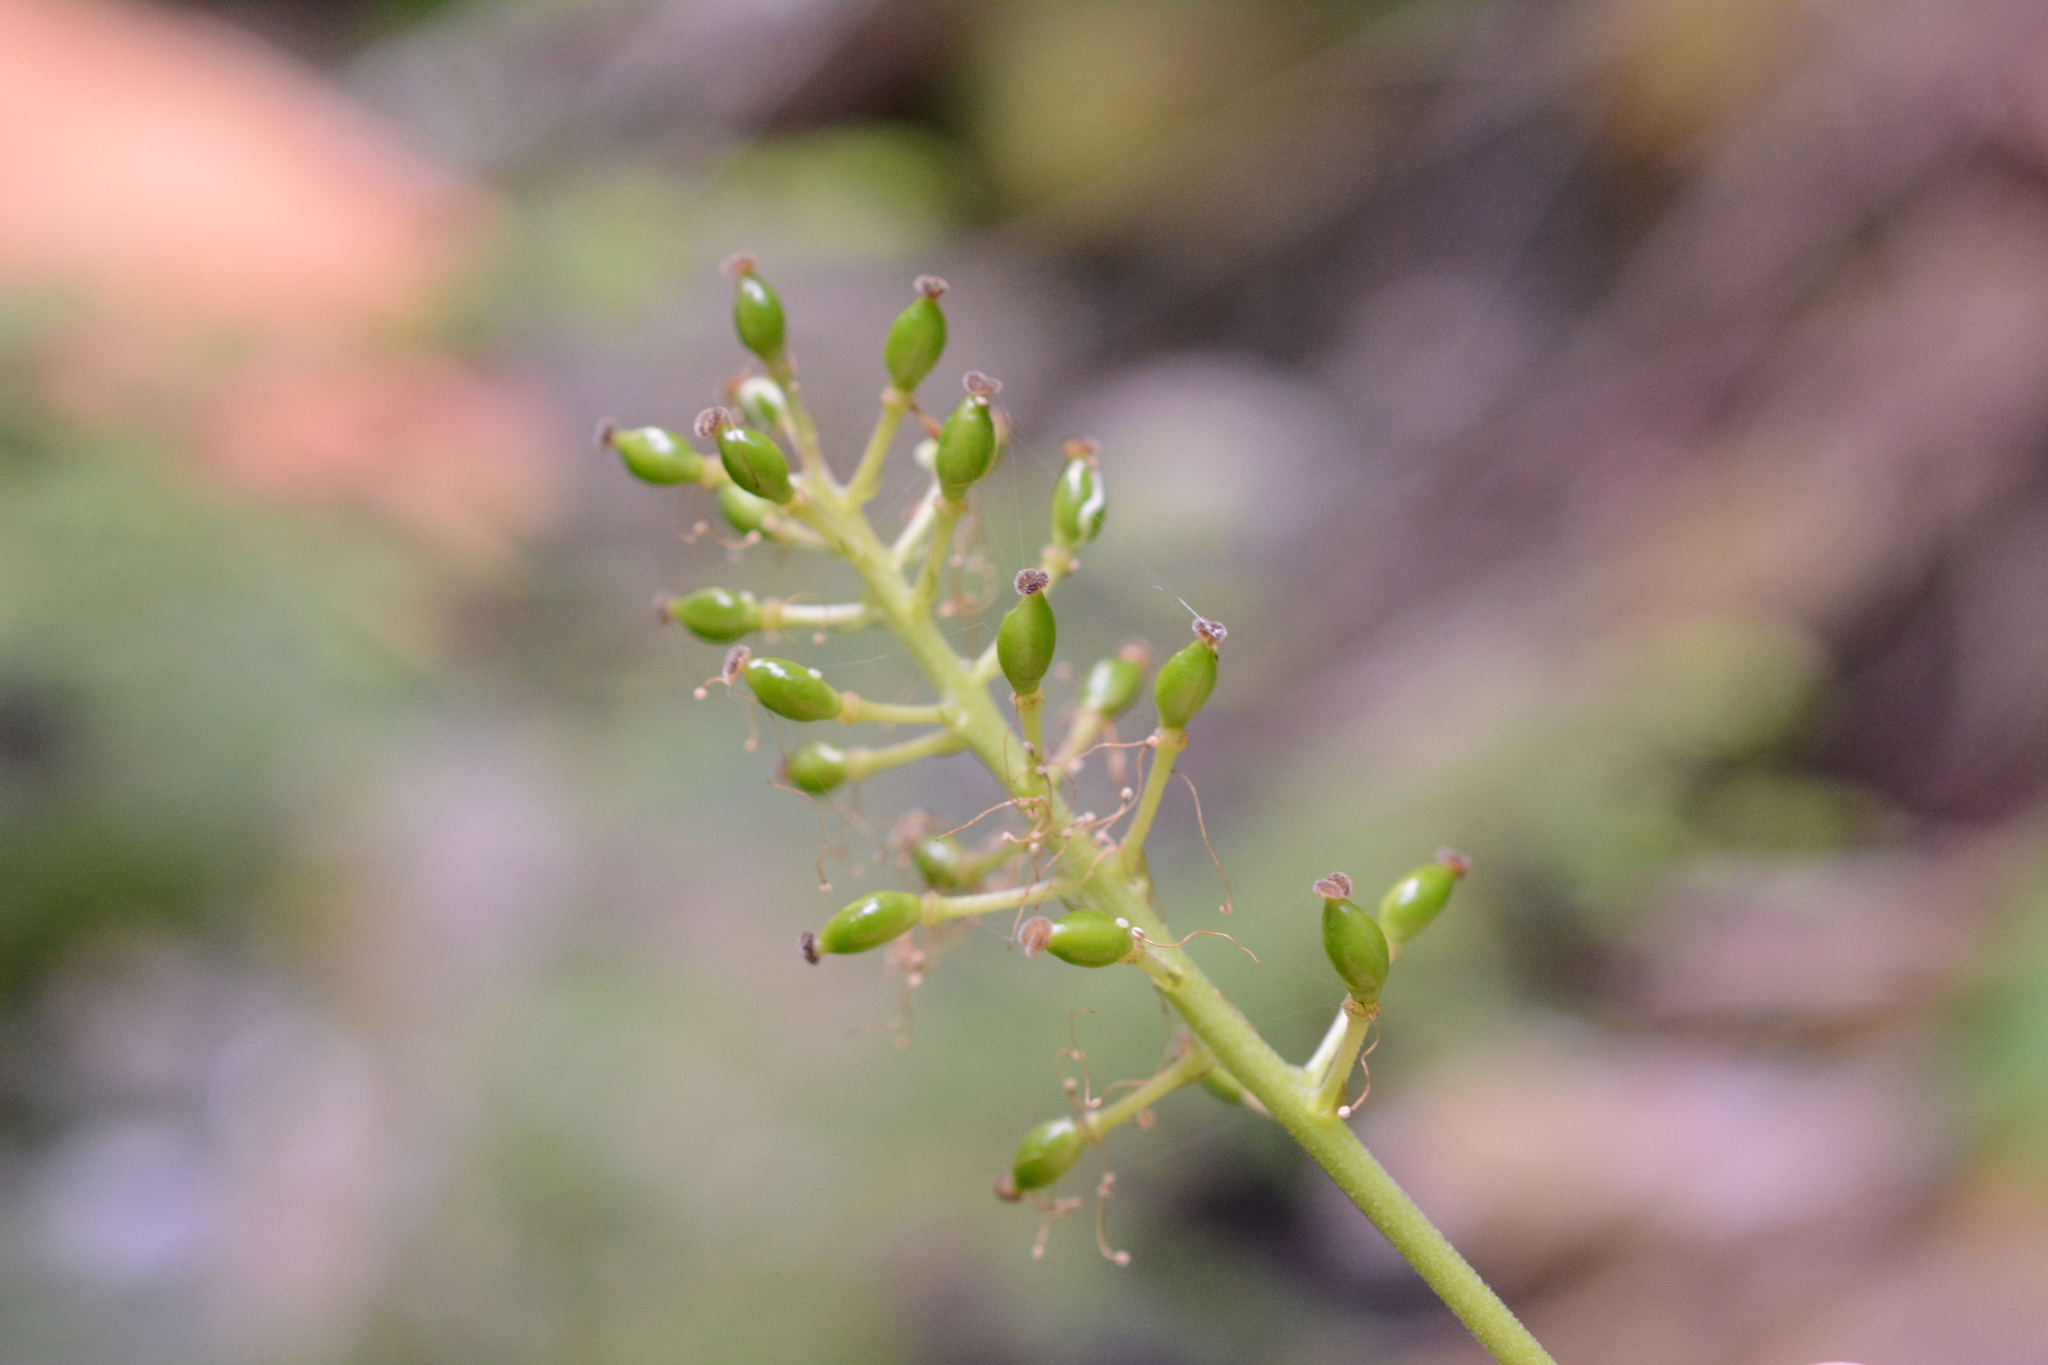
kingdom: Plantae
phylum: Tracheophyta
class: Magnoliopsida
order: Ranunculales
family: Ranunculaceae
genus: Actaea
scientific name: Actaea rubra
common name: Red baneberry
